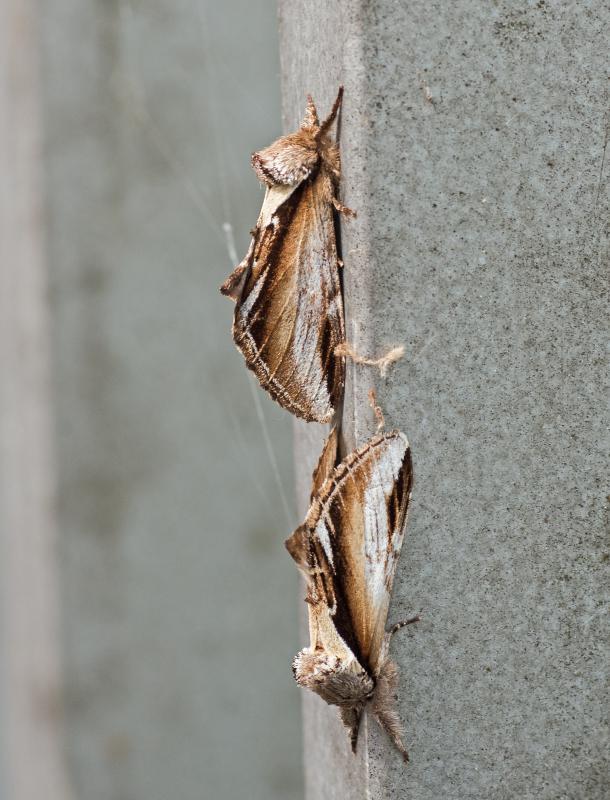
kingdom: Animalia
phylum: Arthropoda
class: Insecta
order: Lepidoptera
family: Notodontidae
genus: Pheosia
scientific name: Pheosia gnoma
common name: Lesser swallow prominent
